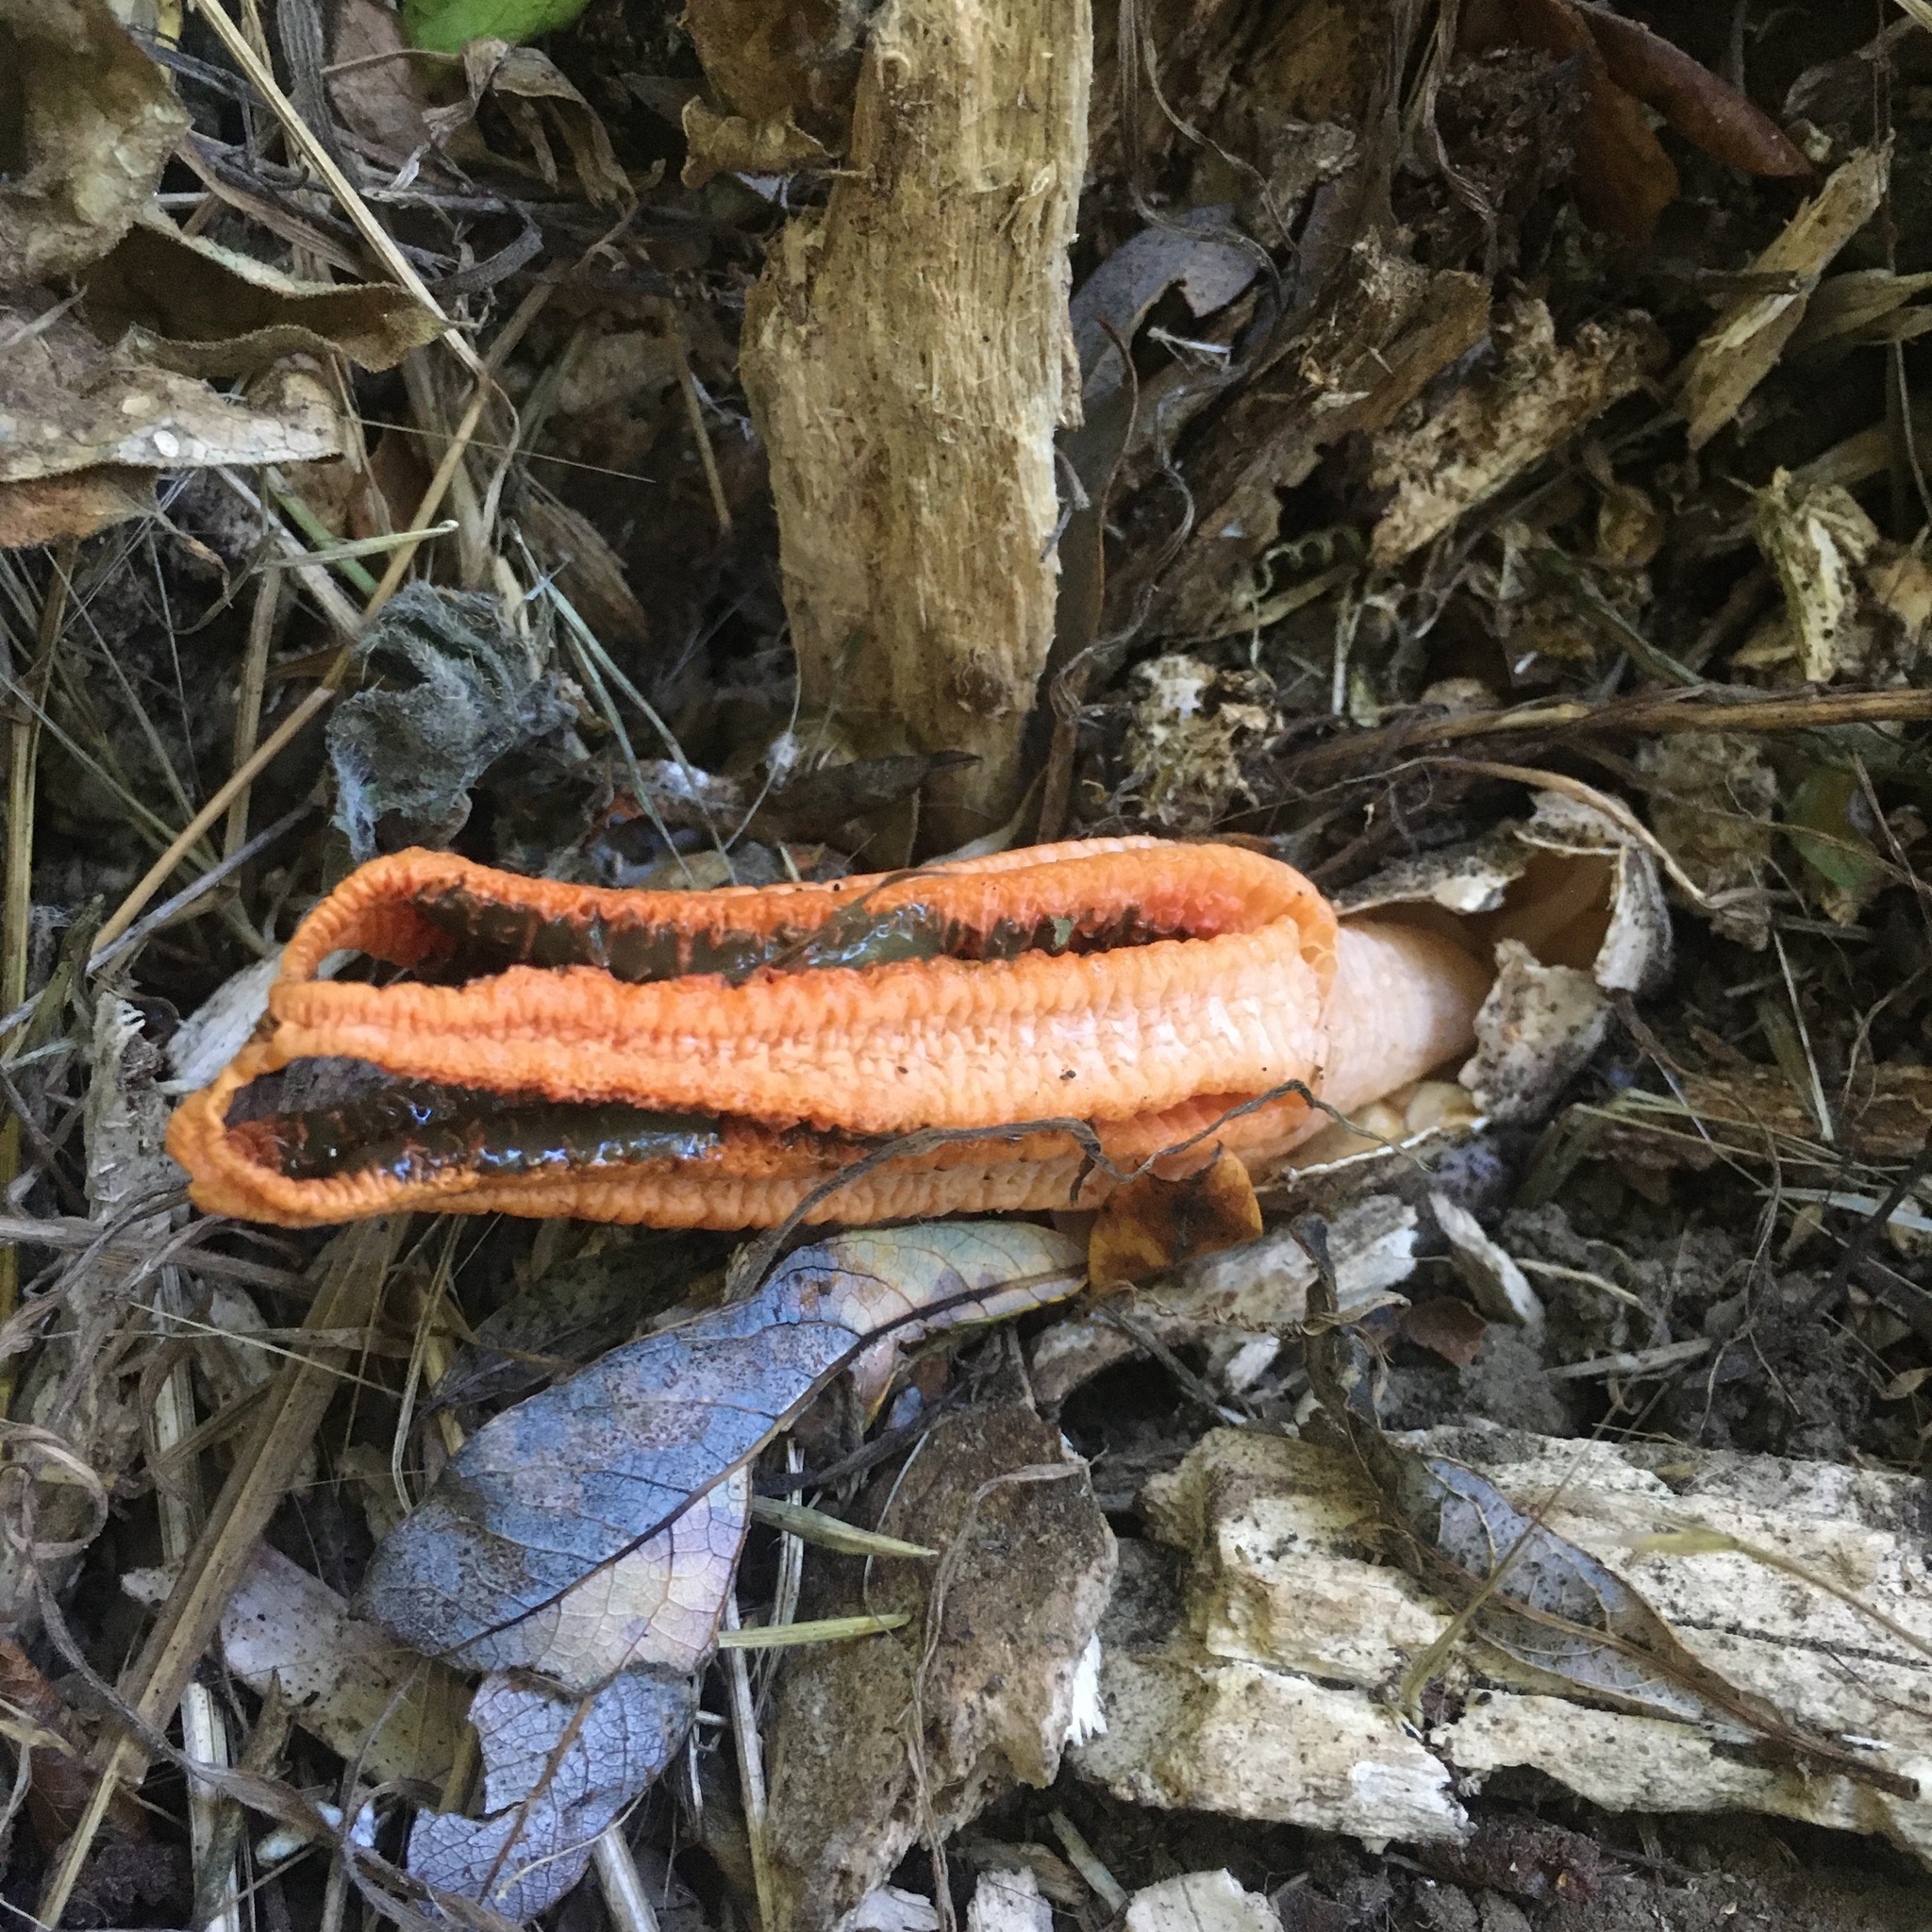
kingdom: Fungi
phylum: Basidiomycota
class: Agaricomycetes
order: Phallales
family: Phallaceae
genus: Pseudocolus
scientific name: Pseudocolus fusiformis
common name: Stinky squid
